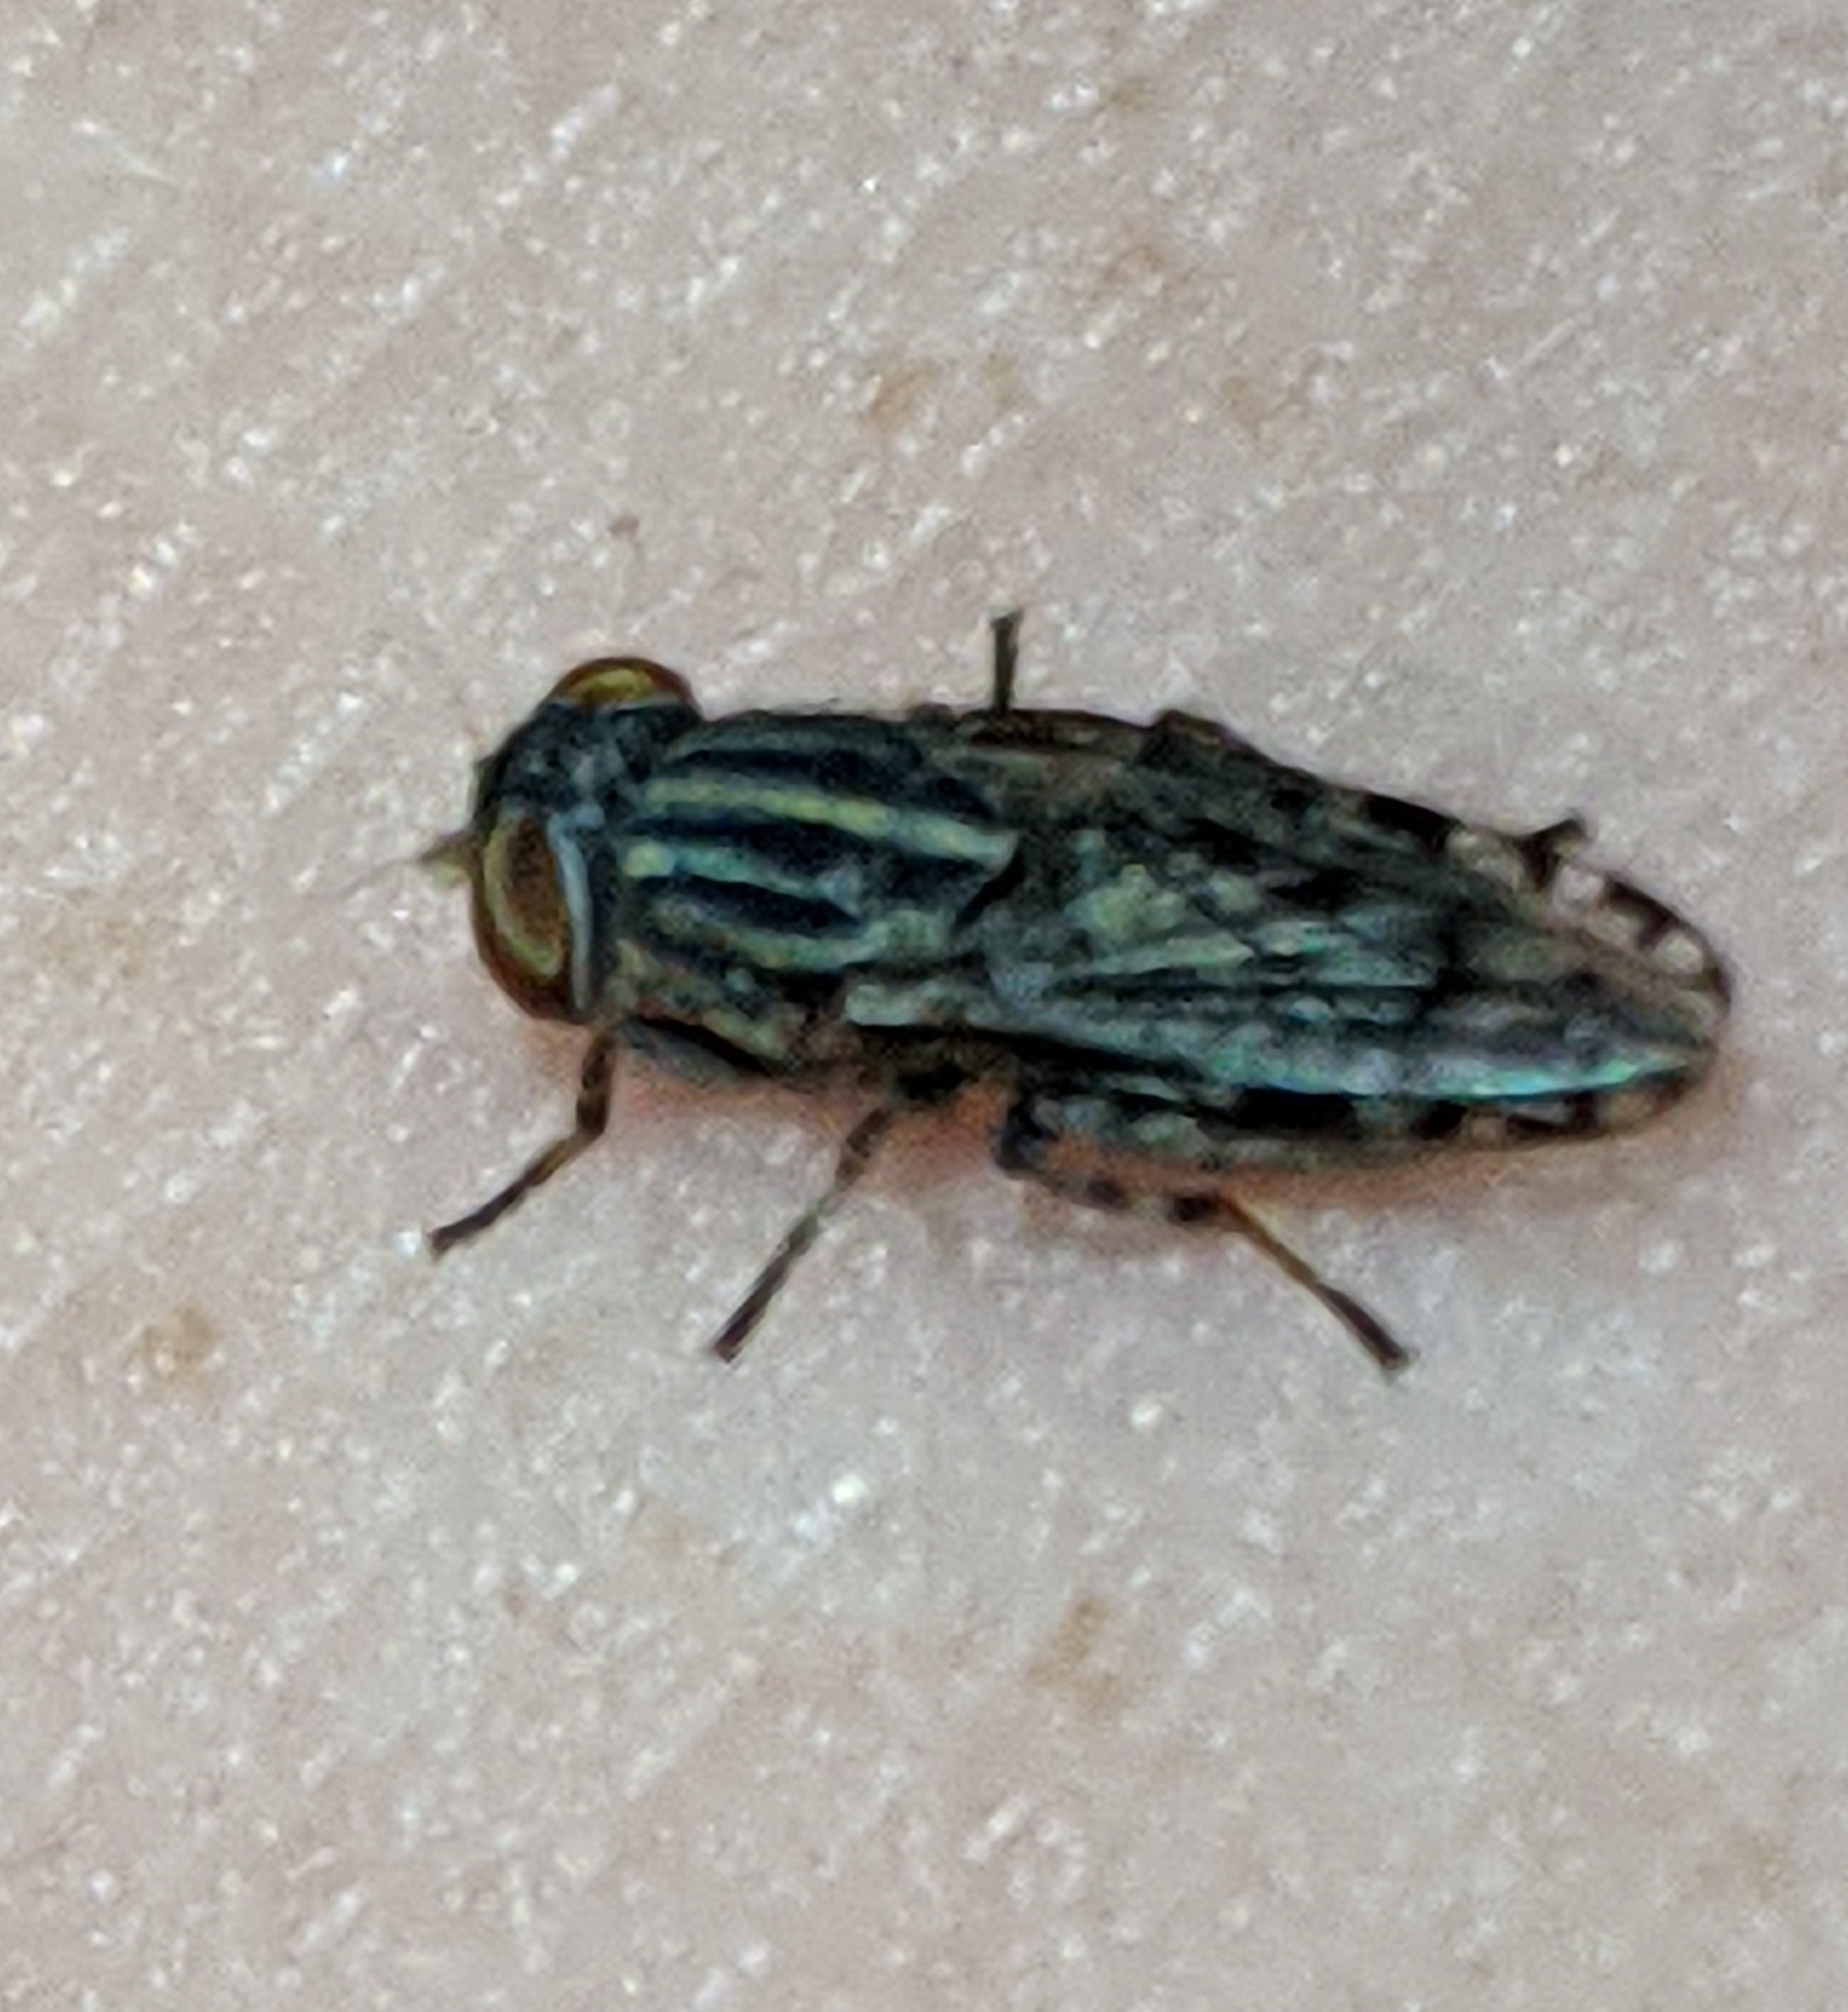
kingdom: Animalia
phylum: Arthropoda
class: Insecta
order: Diptera
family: Ulidiidae
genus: Paroedopa
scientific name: Paroedopa punctigera
